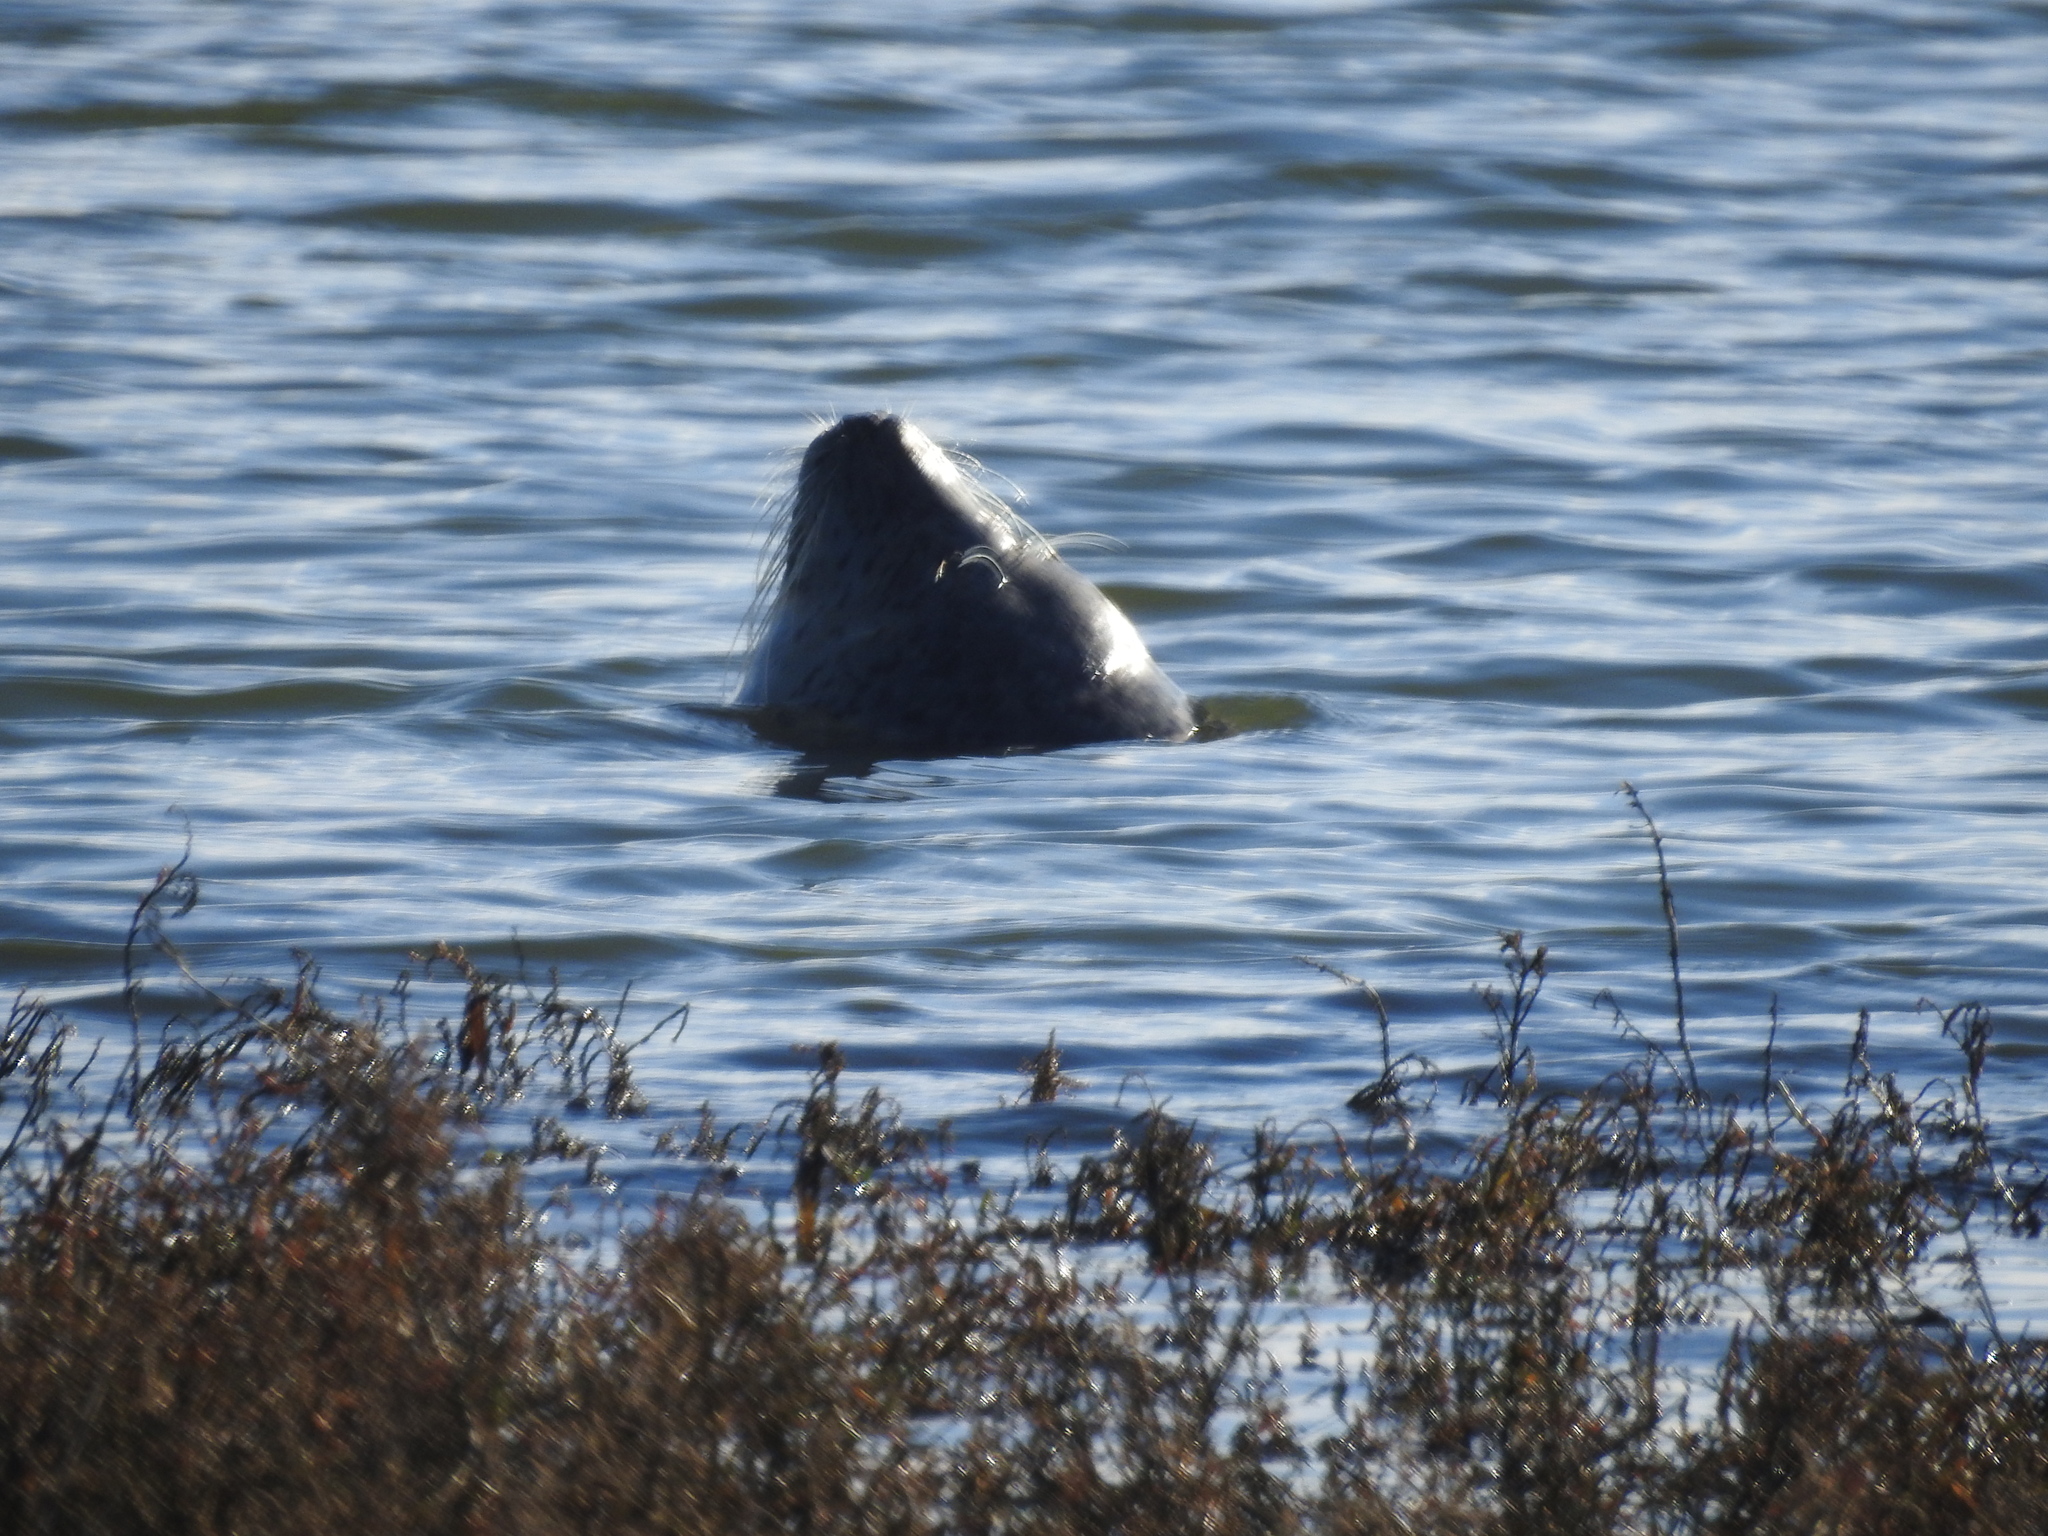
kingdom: Animalia
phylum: Chordata
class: Mammalia
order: Carnivora
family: Phocidae
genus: Phoca
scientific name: Phoca vitulina
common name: Harbor seal
